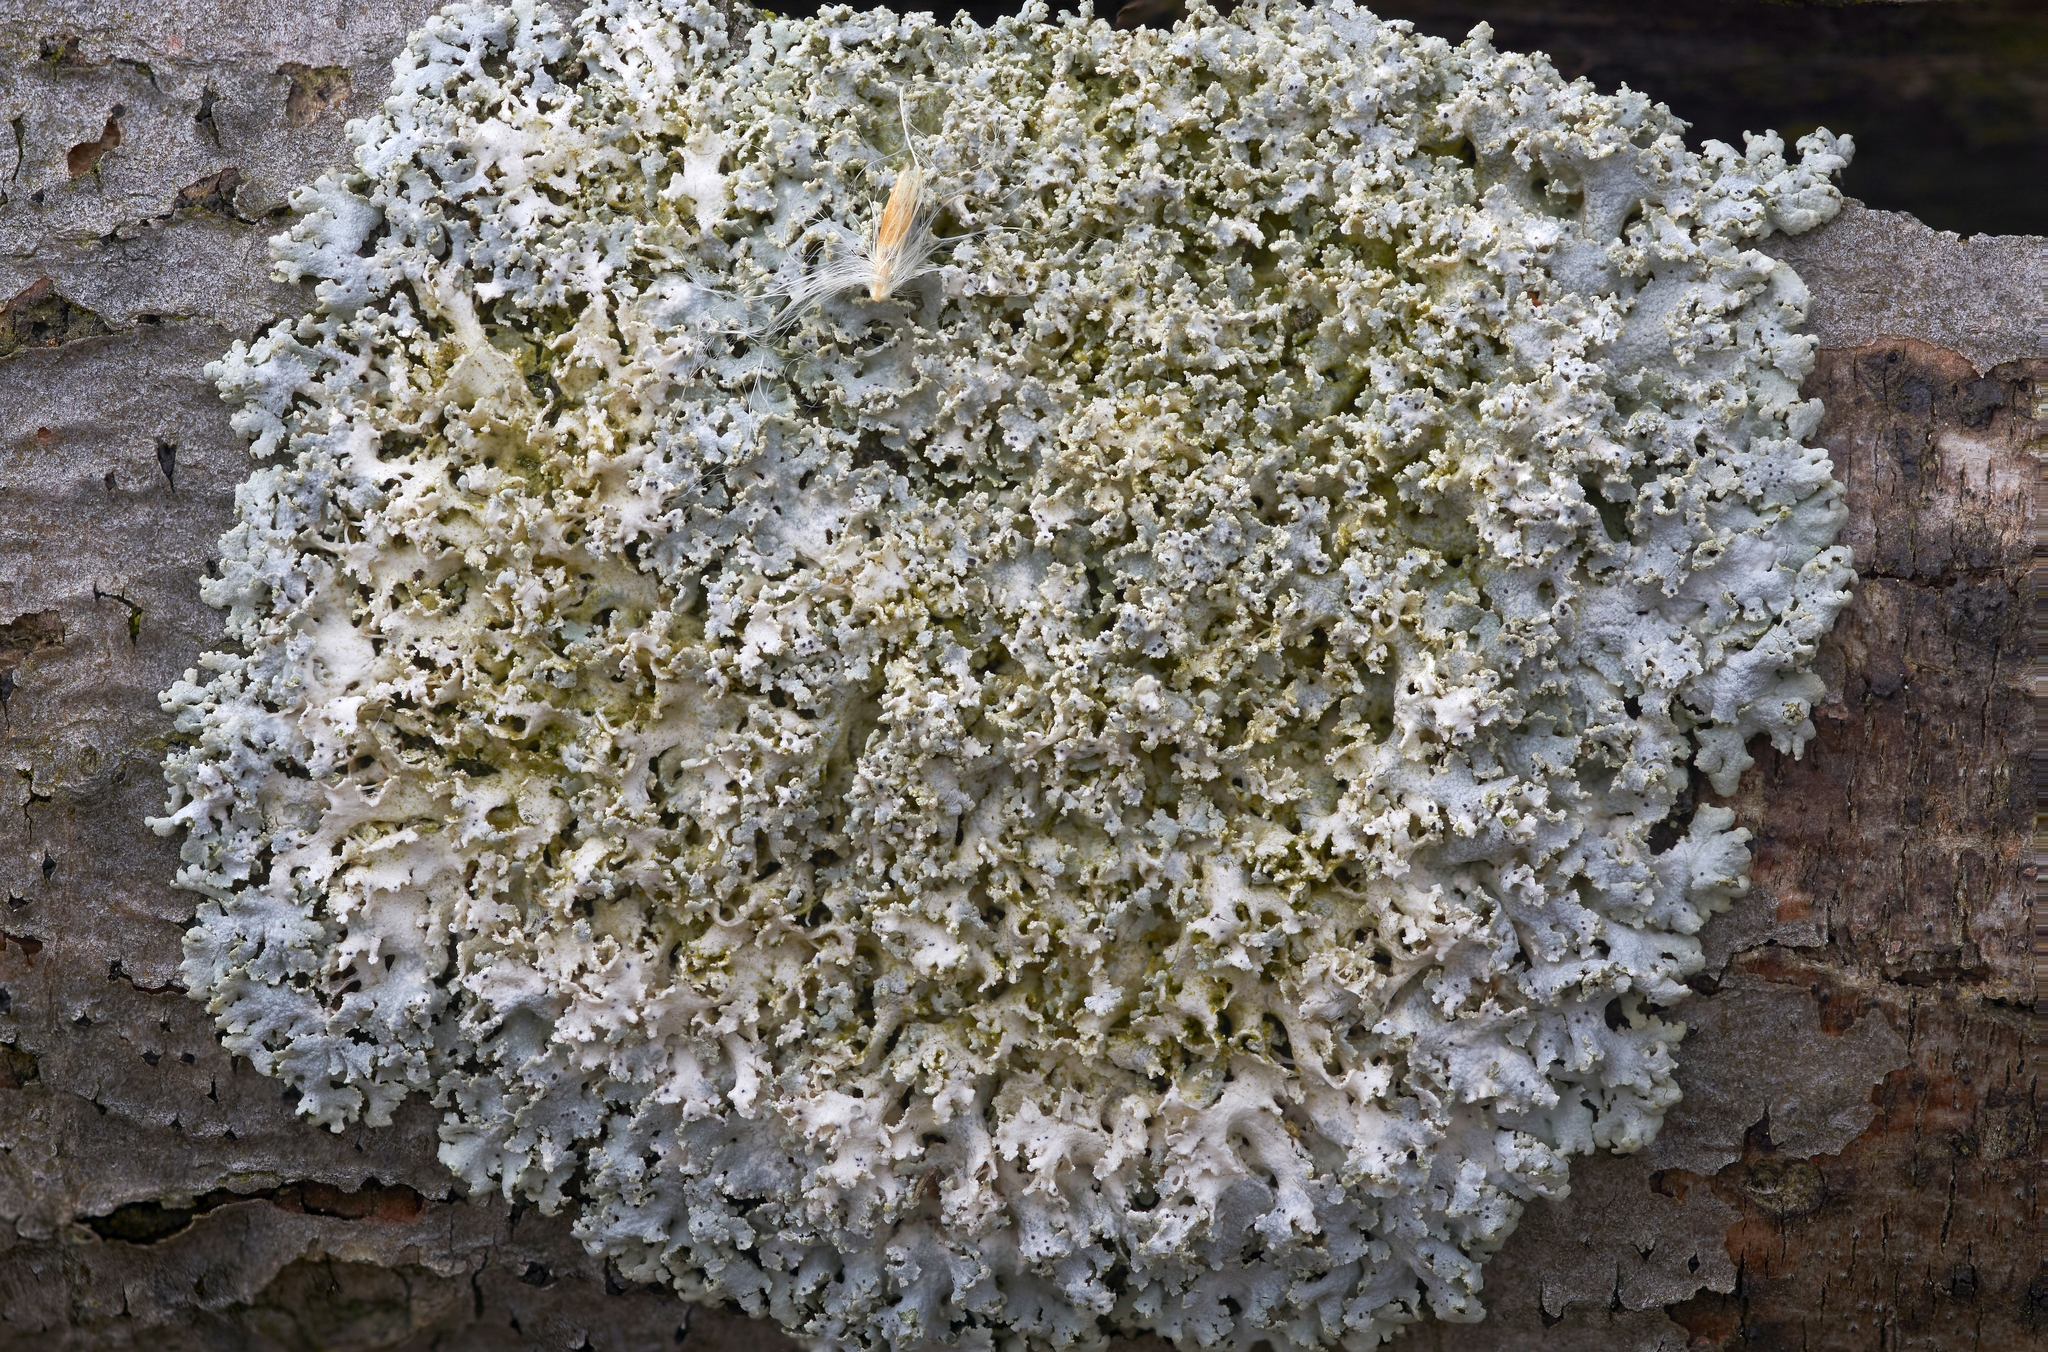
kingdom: Fungi
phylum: Ascomycota
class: Lecanoromycetes
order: Caliciales
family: Physciaceae
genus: Physcia
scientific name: Physcia millegrana
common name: Rosette lichen
